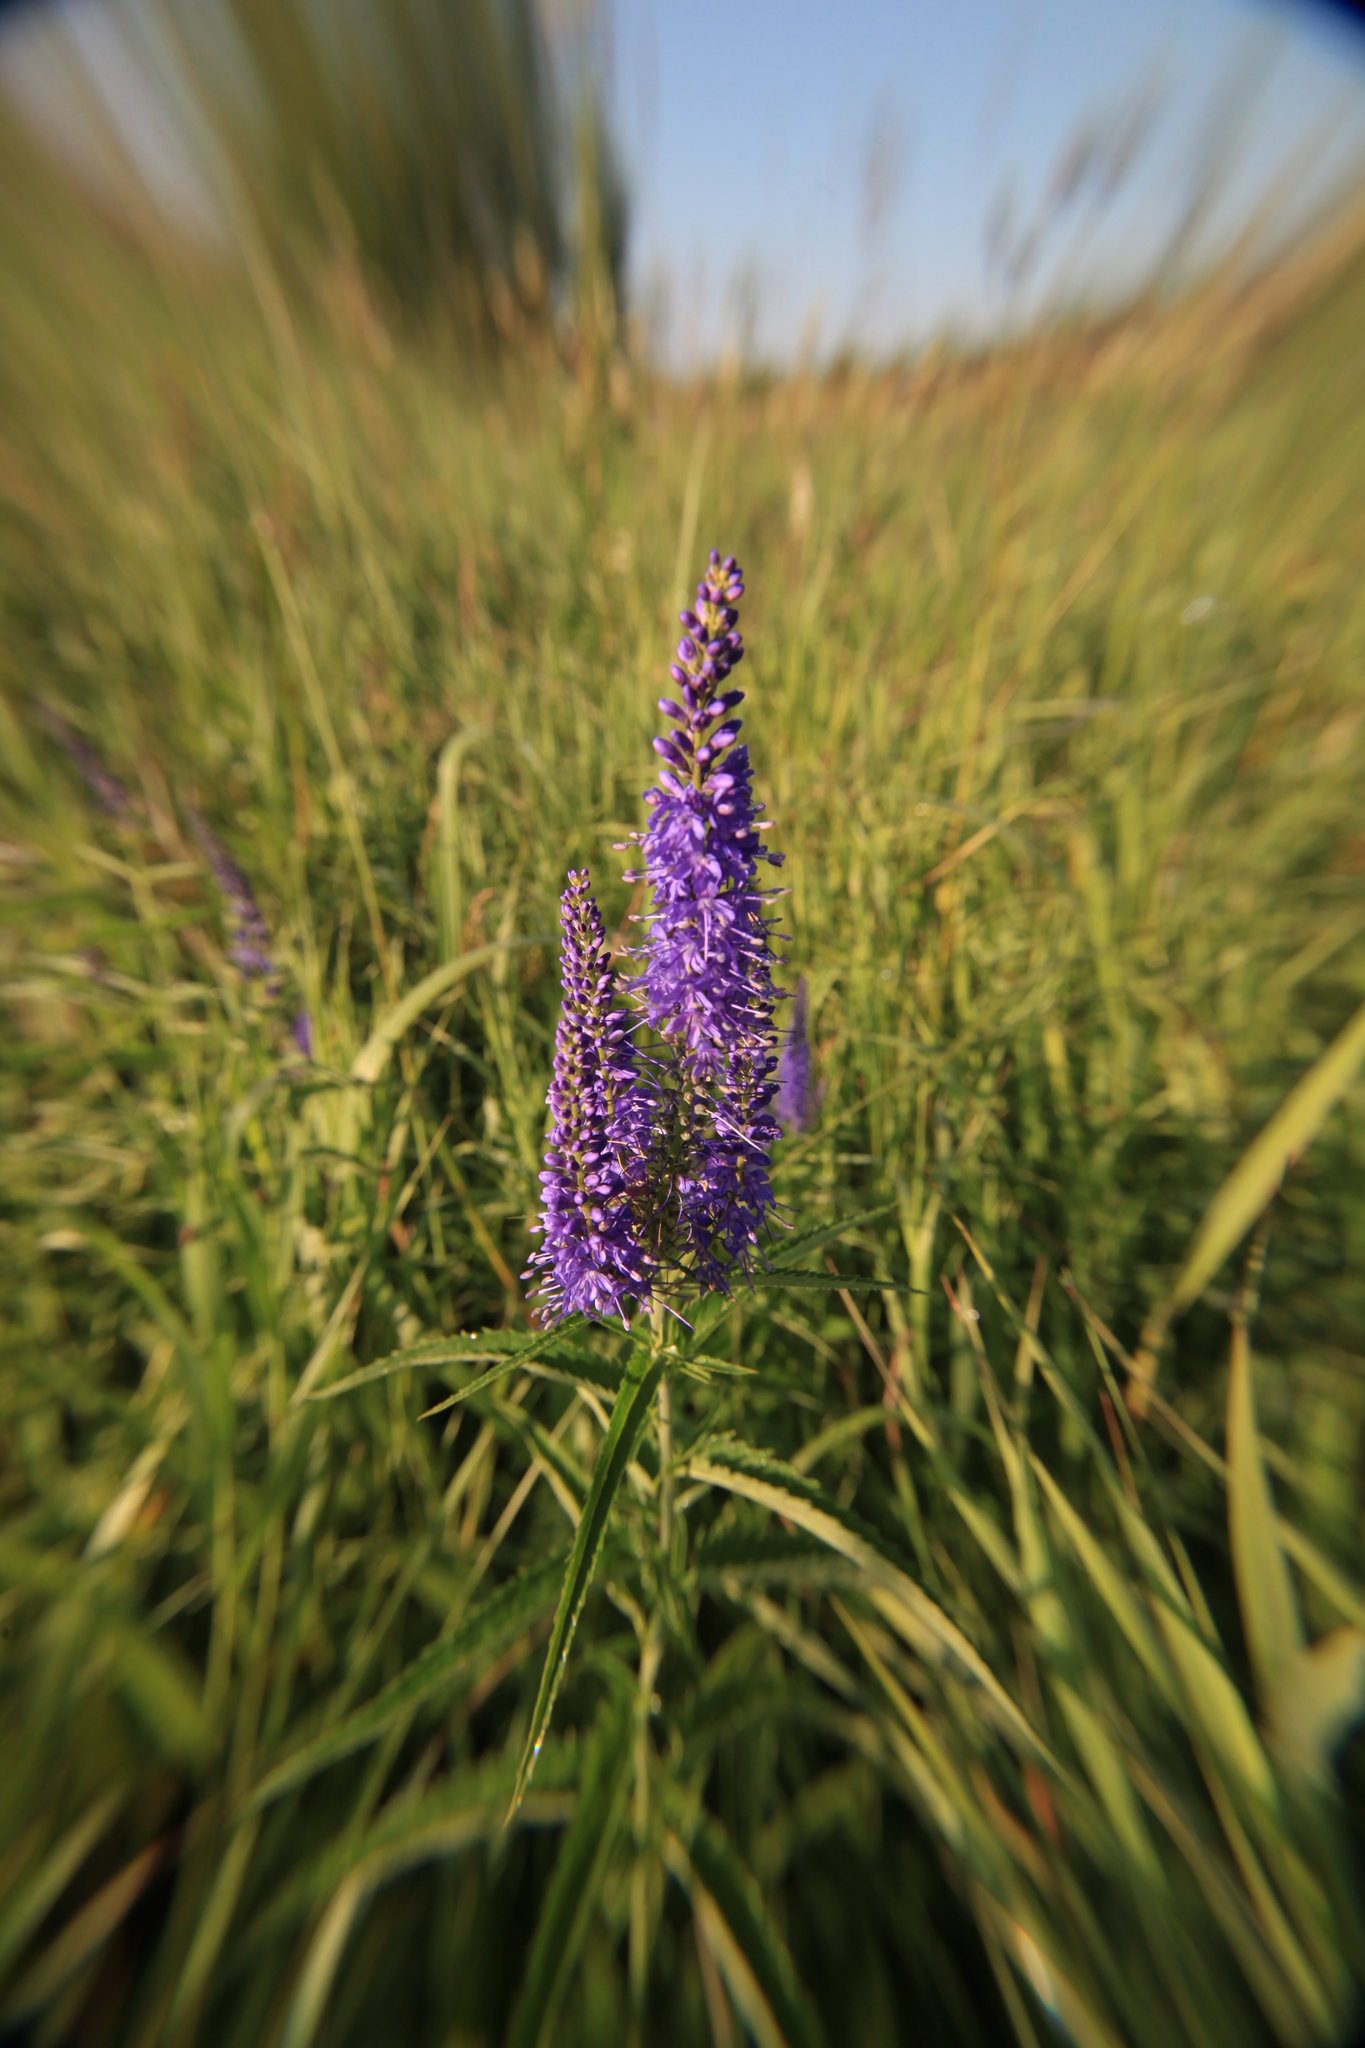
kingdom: Plantae
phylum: Tracheophyta
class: Magnoliopsida
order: Lamiales
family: Plantaginaceae
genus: Veronica
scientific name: Veronica longifolia
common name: Garden speedwell
